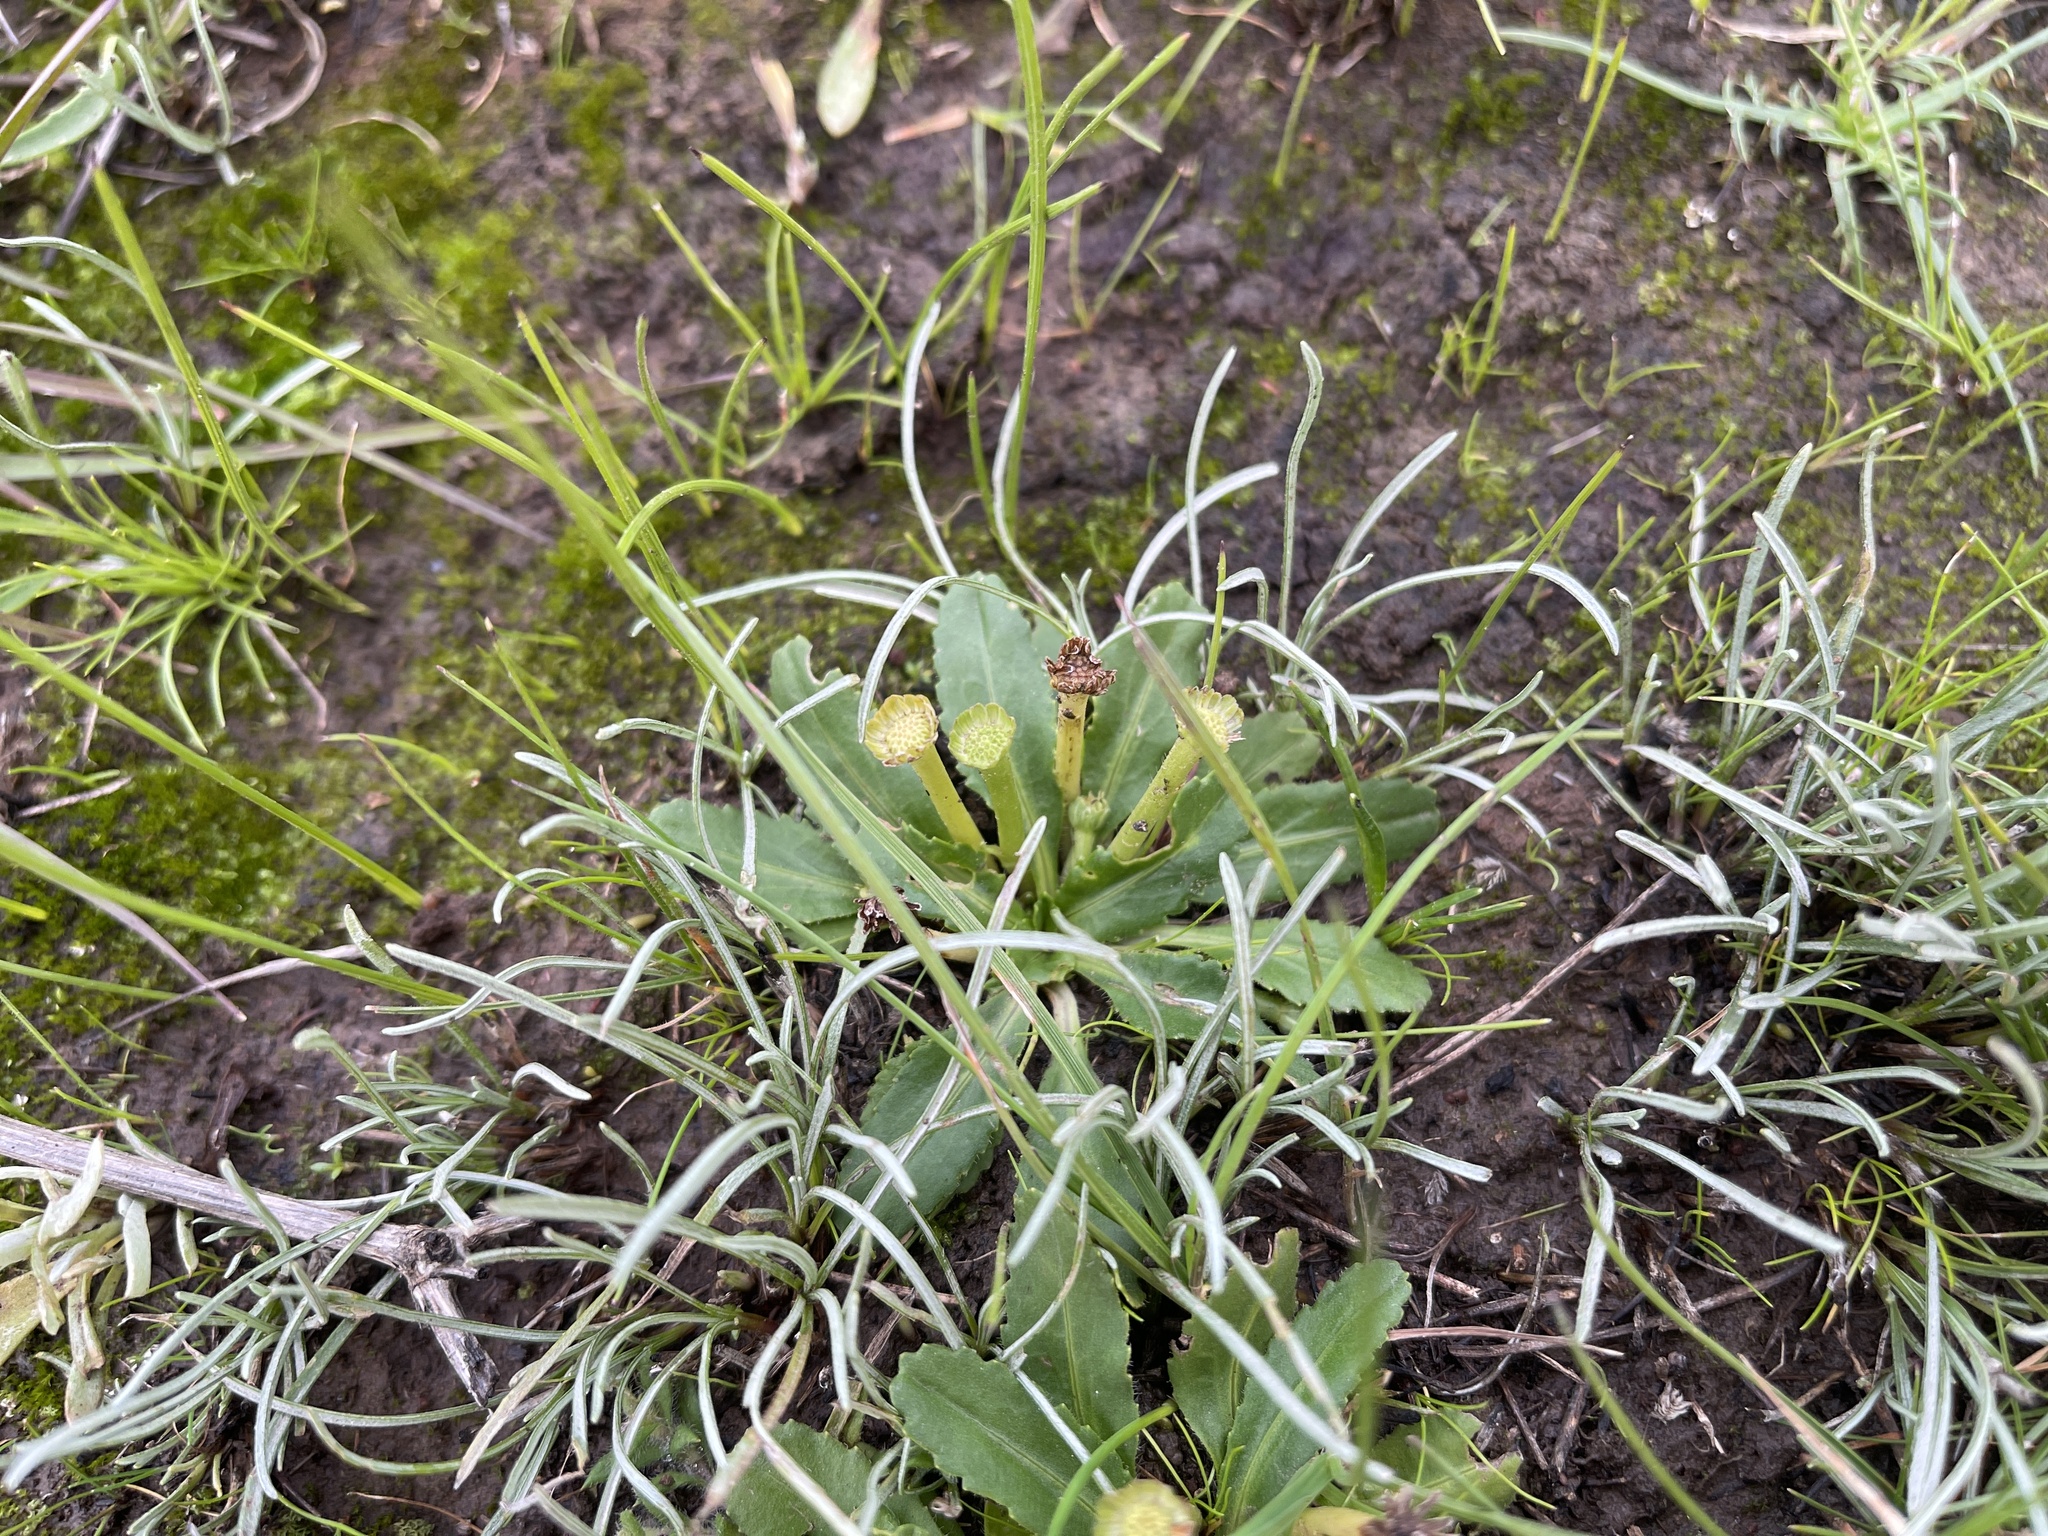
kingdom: Plantae
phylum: Tracheophyta
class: Magnoliopsida
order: Asterales
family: Asteraceae
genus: Solenogyne
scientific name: Solenogyne dominii
